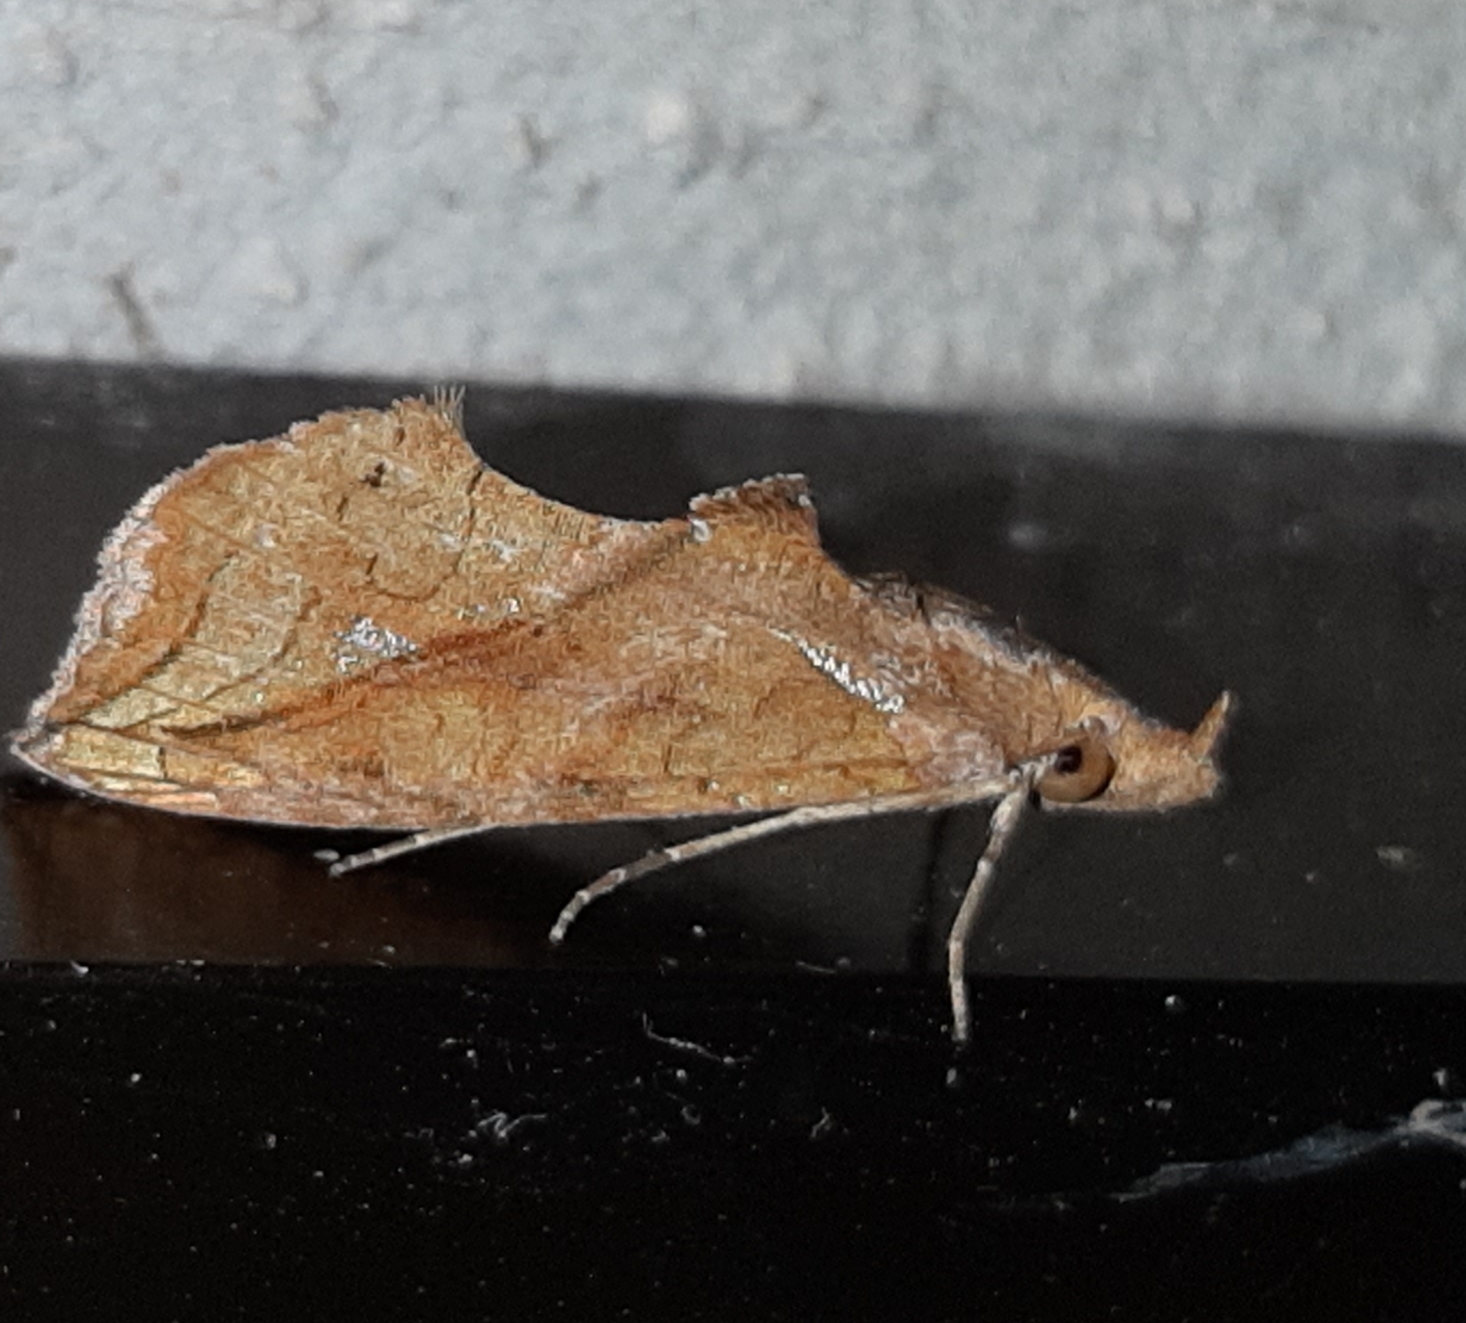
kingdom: Animalia
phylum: Arthropoda
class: Insecta
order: Lepidoptera
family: Erebidae
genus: Plusiodonta
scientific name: Plusiodonta effulgens
